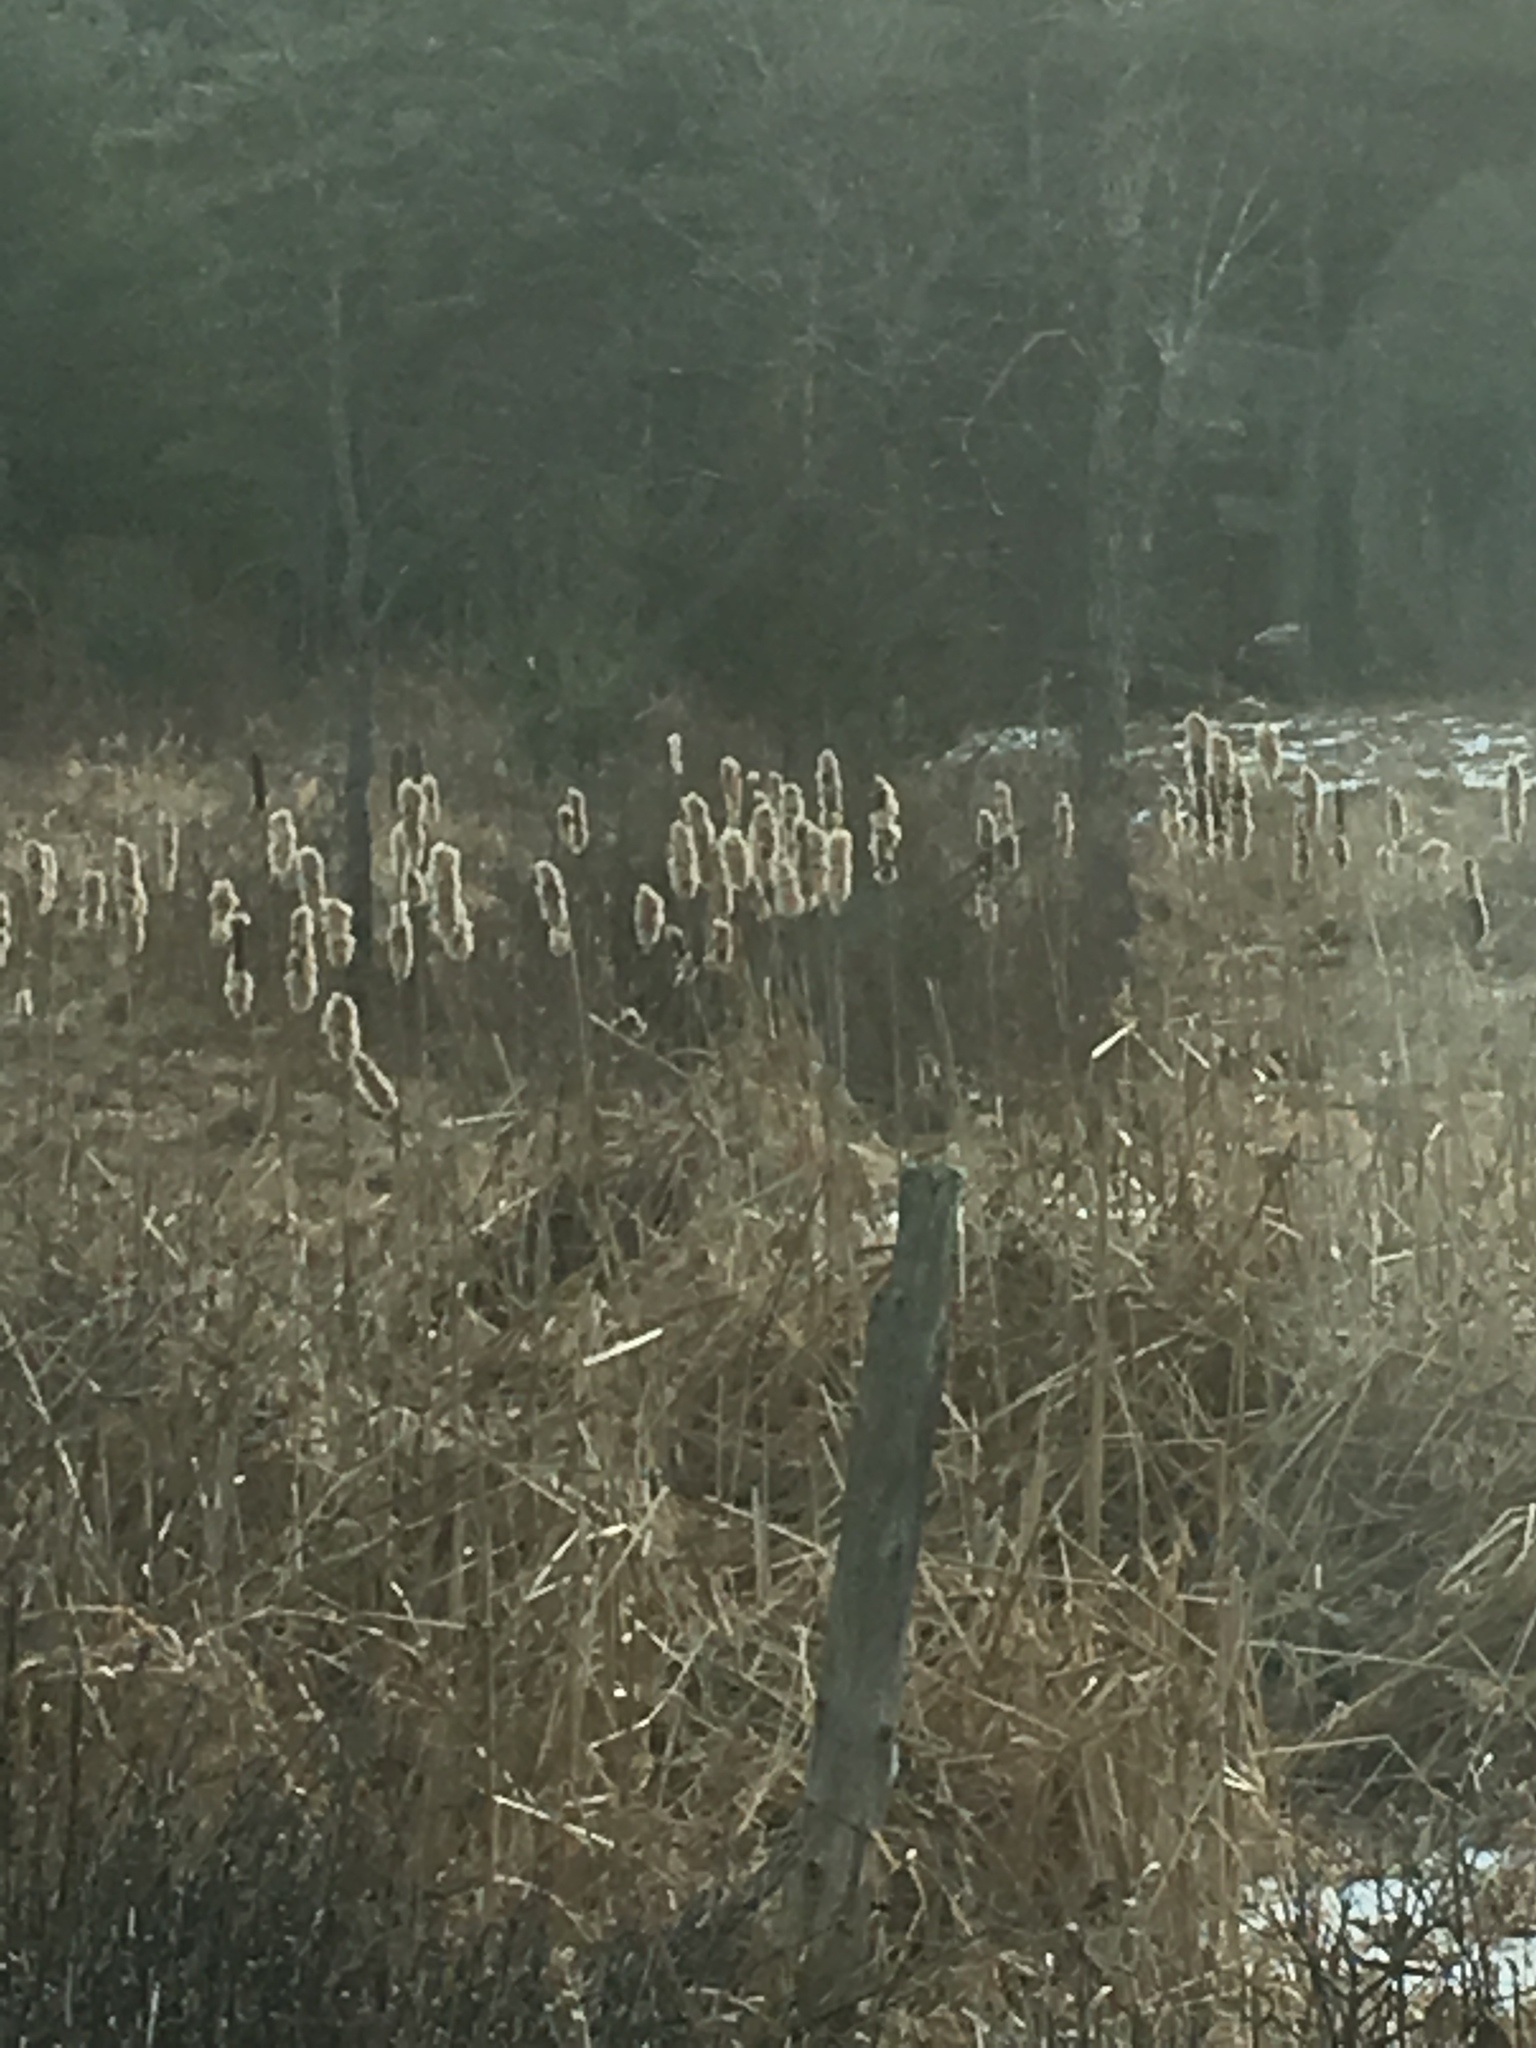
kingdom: Plantae
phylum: Tracheophyta
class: Pinopsida
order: Pinales
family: Cupressaceae
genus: Juniperus
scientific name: Juniperus virginiana
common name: Red juniper
